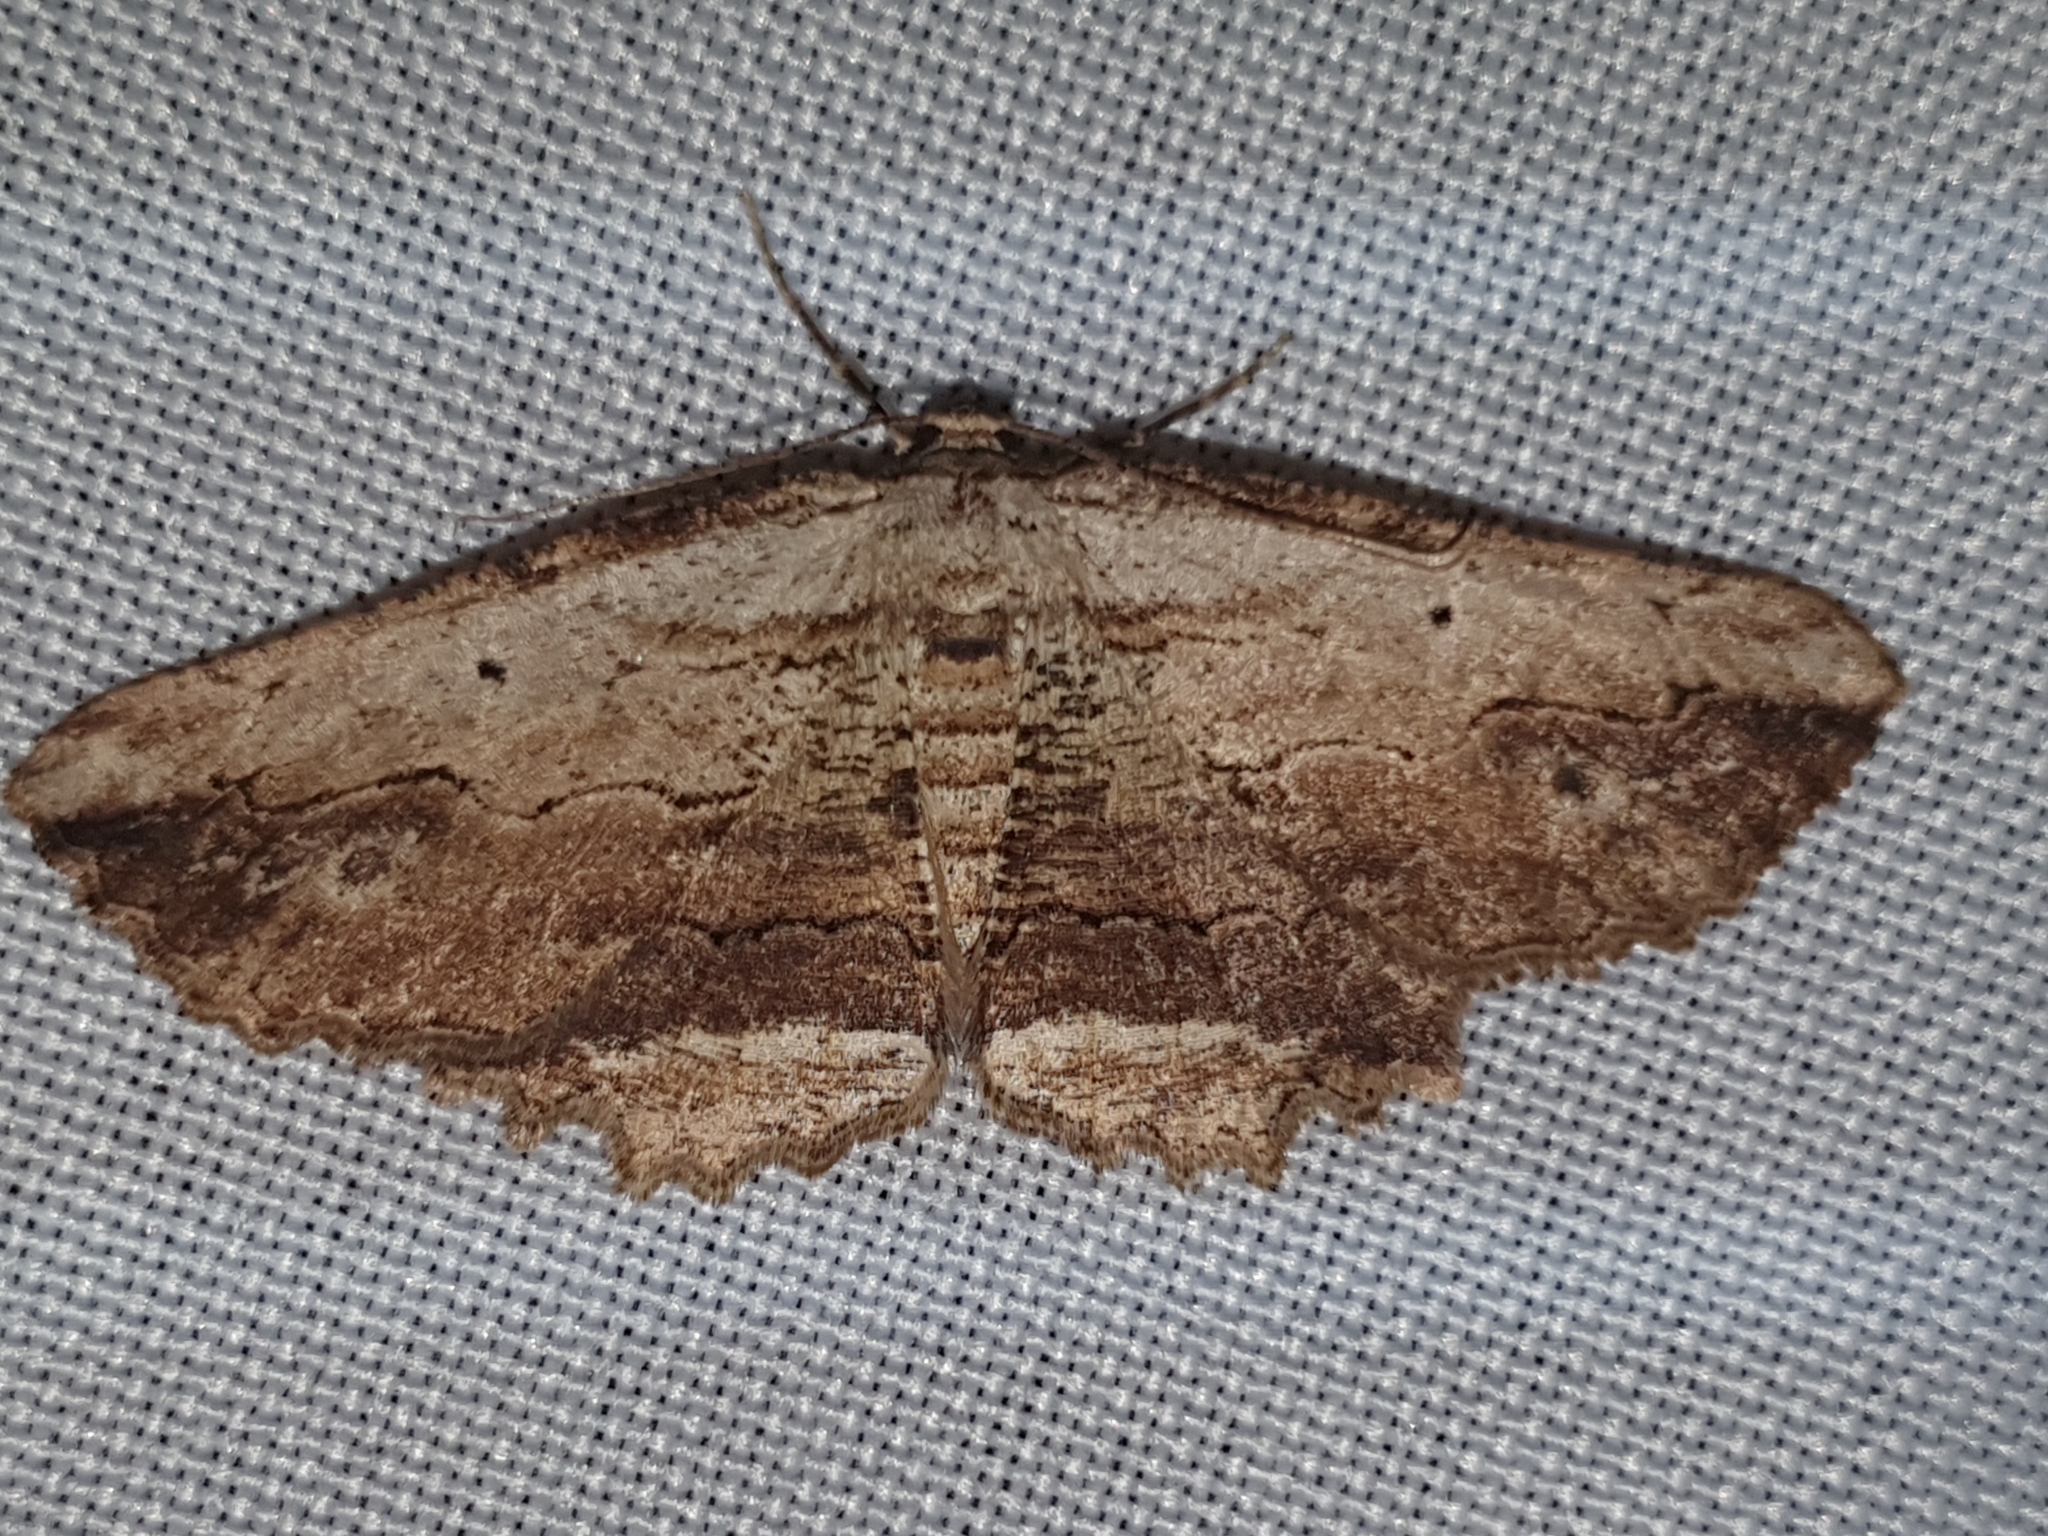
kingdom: Animalia
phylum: Arthropoda
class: Insecta
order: Lepidoptera
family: Geometridae
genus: Menophra
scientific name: Menophra abruptaria
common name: Waved umber
